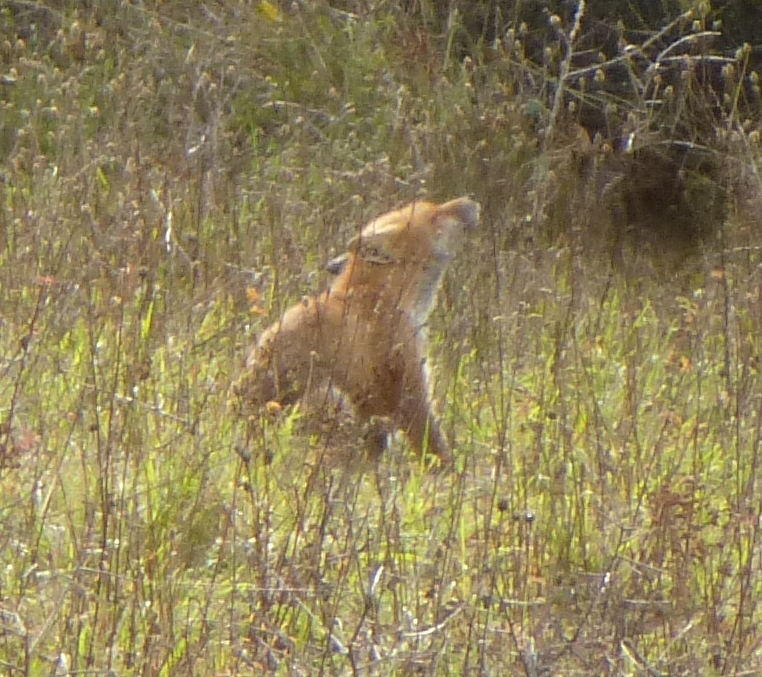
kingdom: Animalia
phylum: Chordata
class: Mammalia
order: Carnivora
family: Canidae
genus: Vulpes
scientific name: Vulpes vulpes
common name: Red fox
